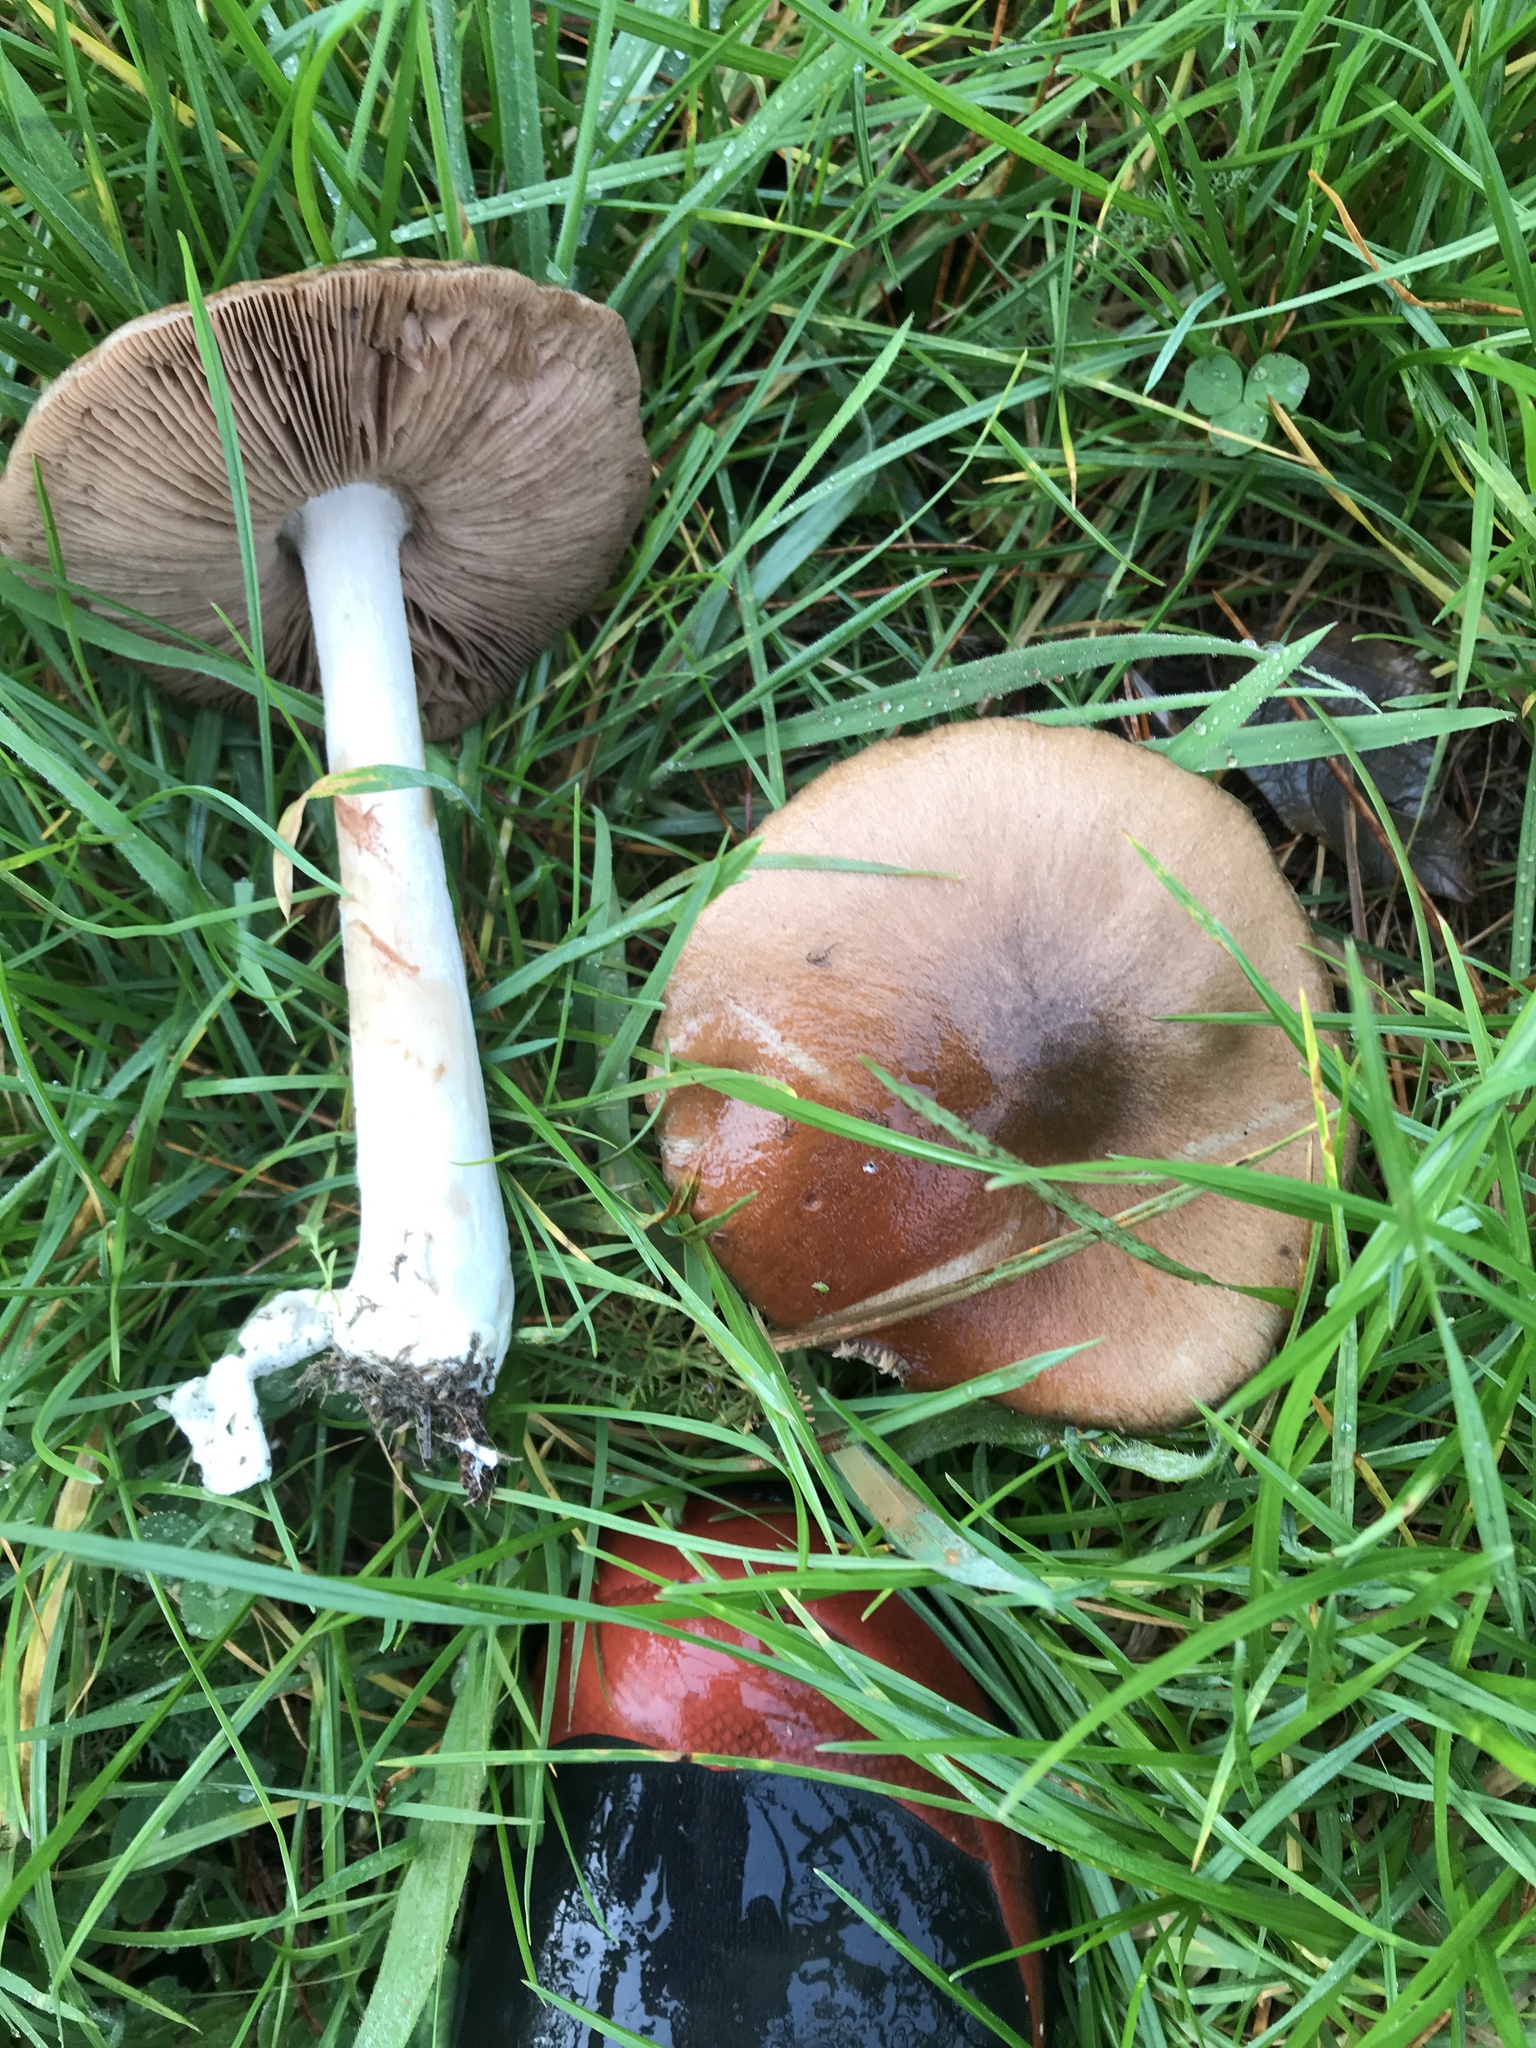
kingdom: Fungi
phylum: Basidiomycota
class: Agaricomycetes
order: Agaricales
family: Pluteaceae
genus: Volvopluteus
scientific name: Volvopluteus gloiocephalus
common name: Stubble rosegill
